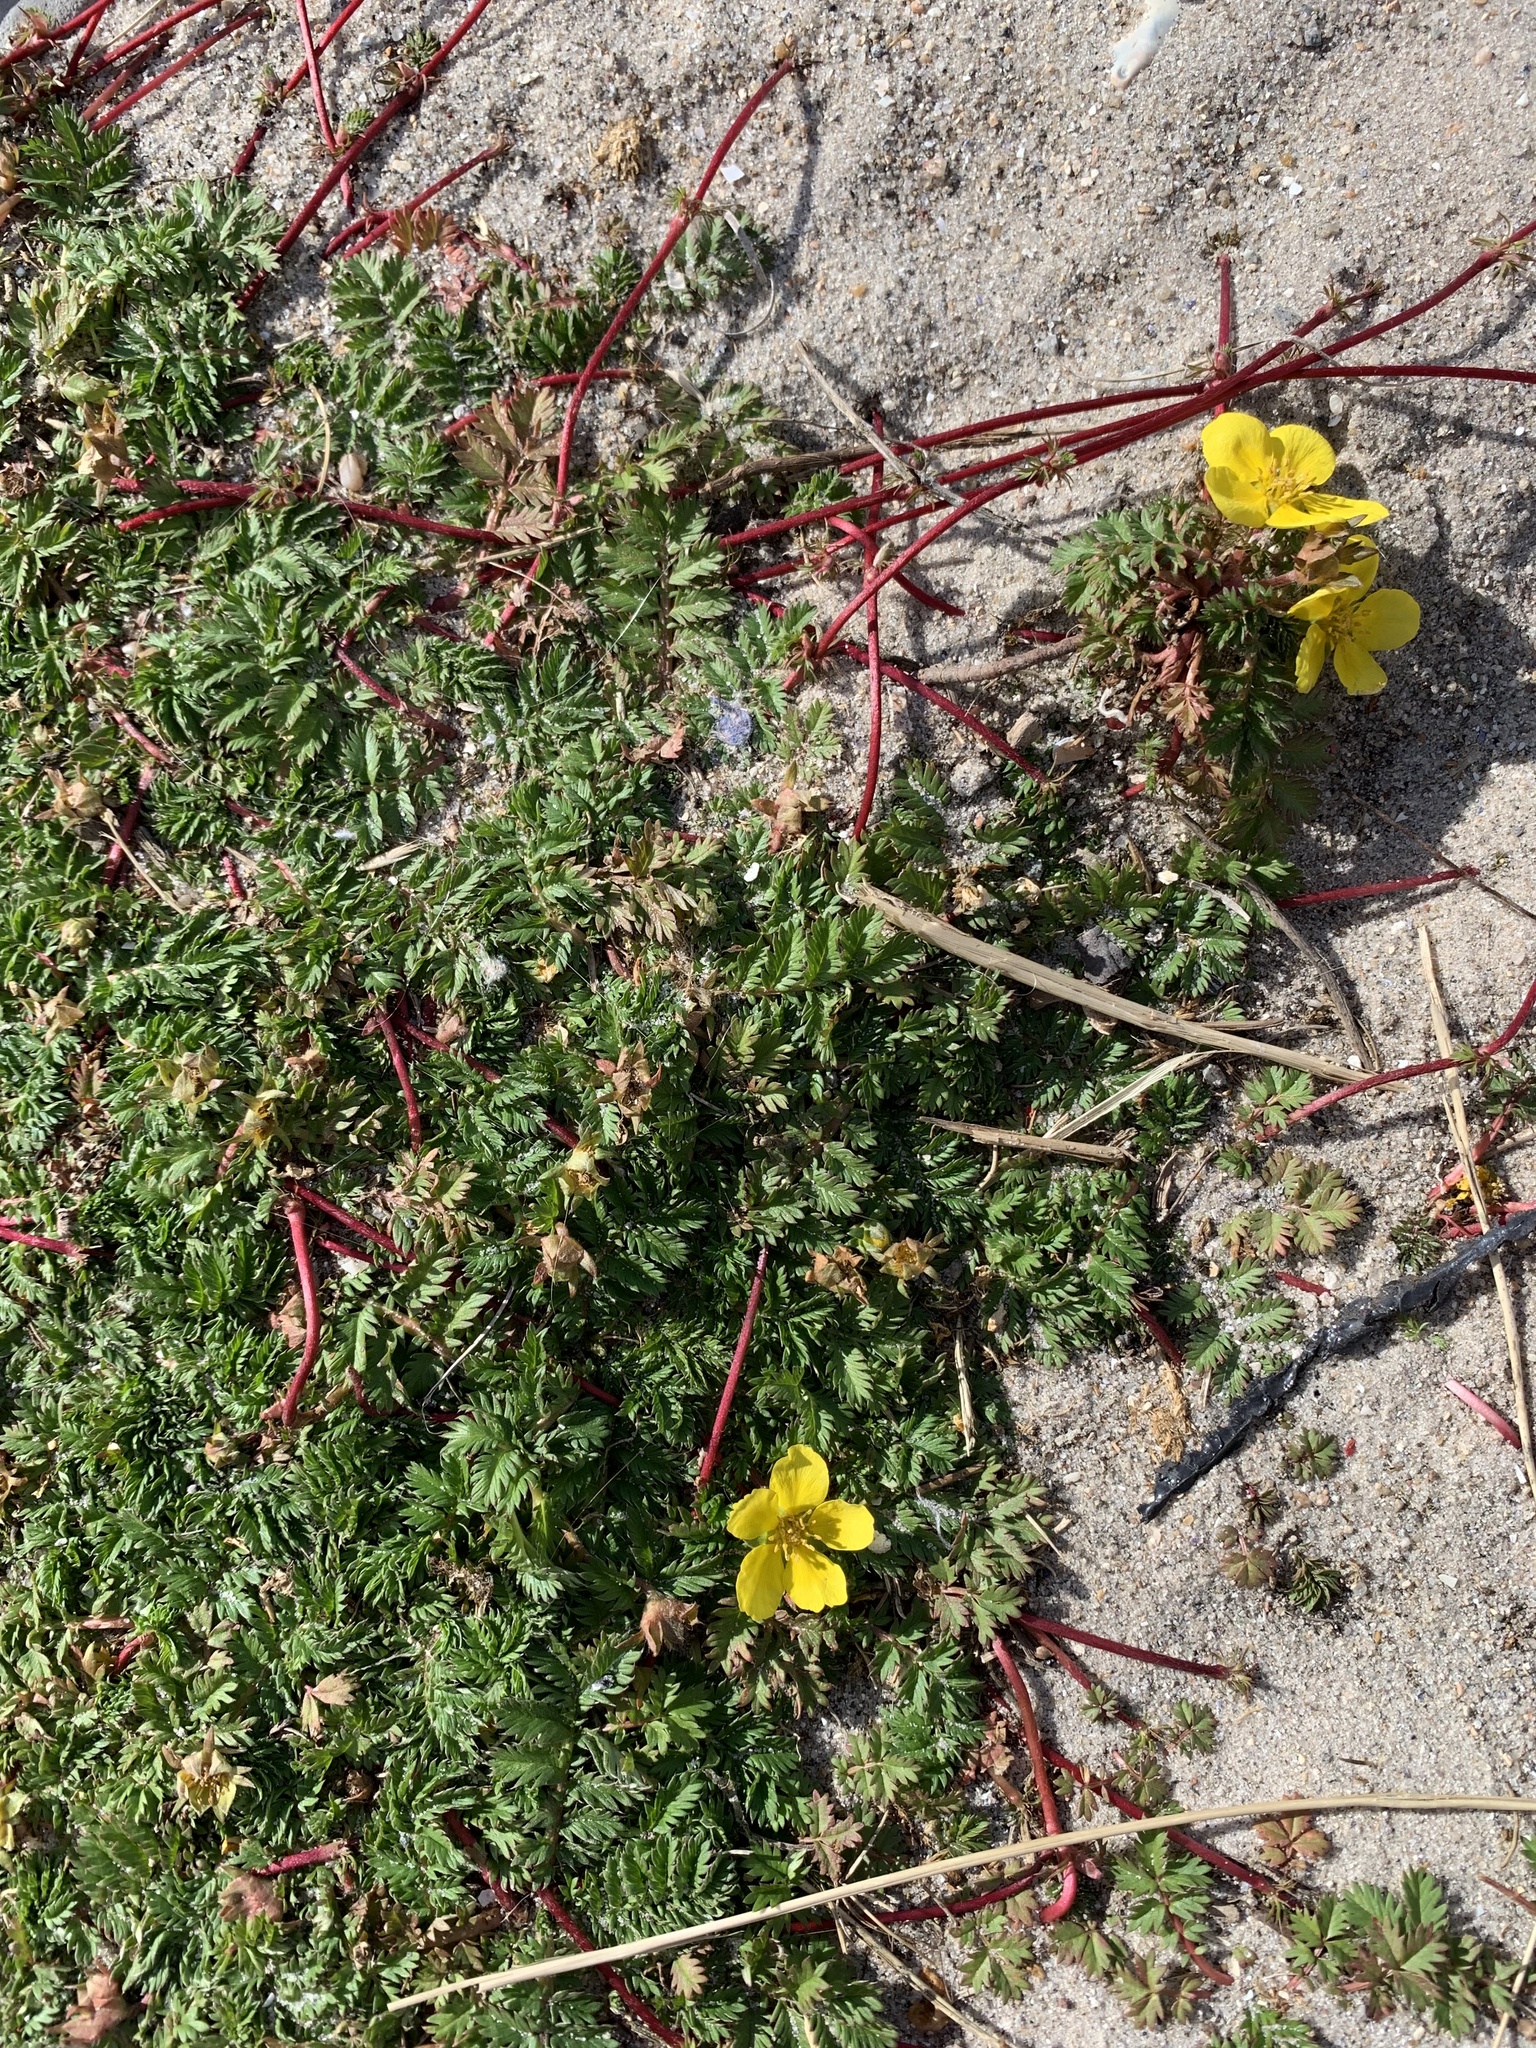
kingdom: Plantae
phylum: Tracheophyta
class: Magnoliopsida
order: Rosales
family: Rosaceae
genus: Argentina
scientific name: Argentina anserina
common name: Common silverweed
